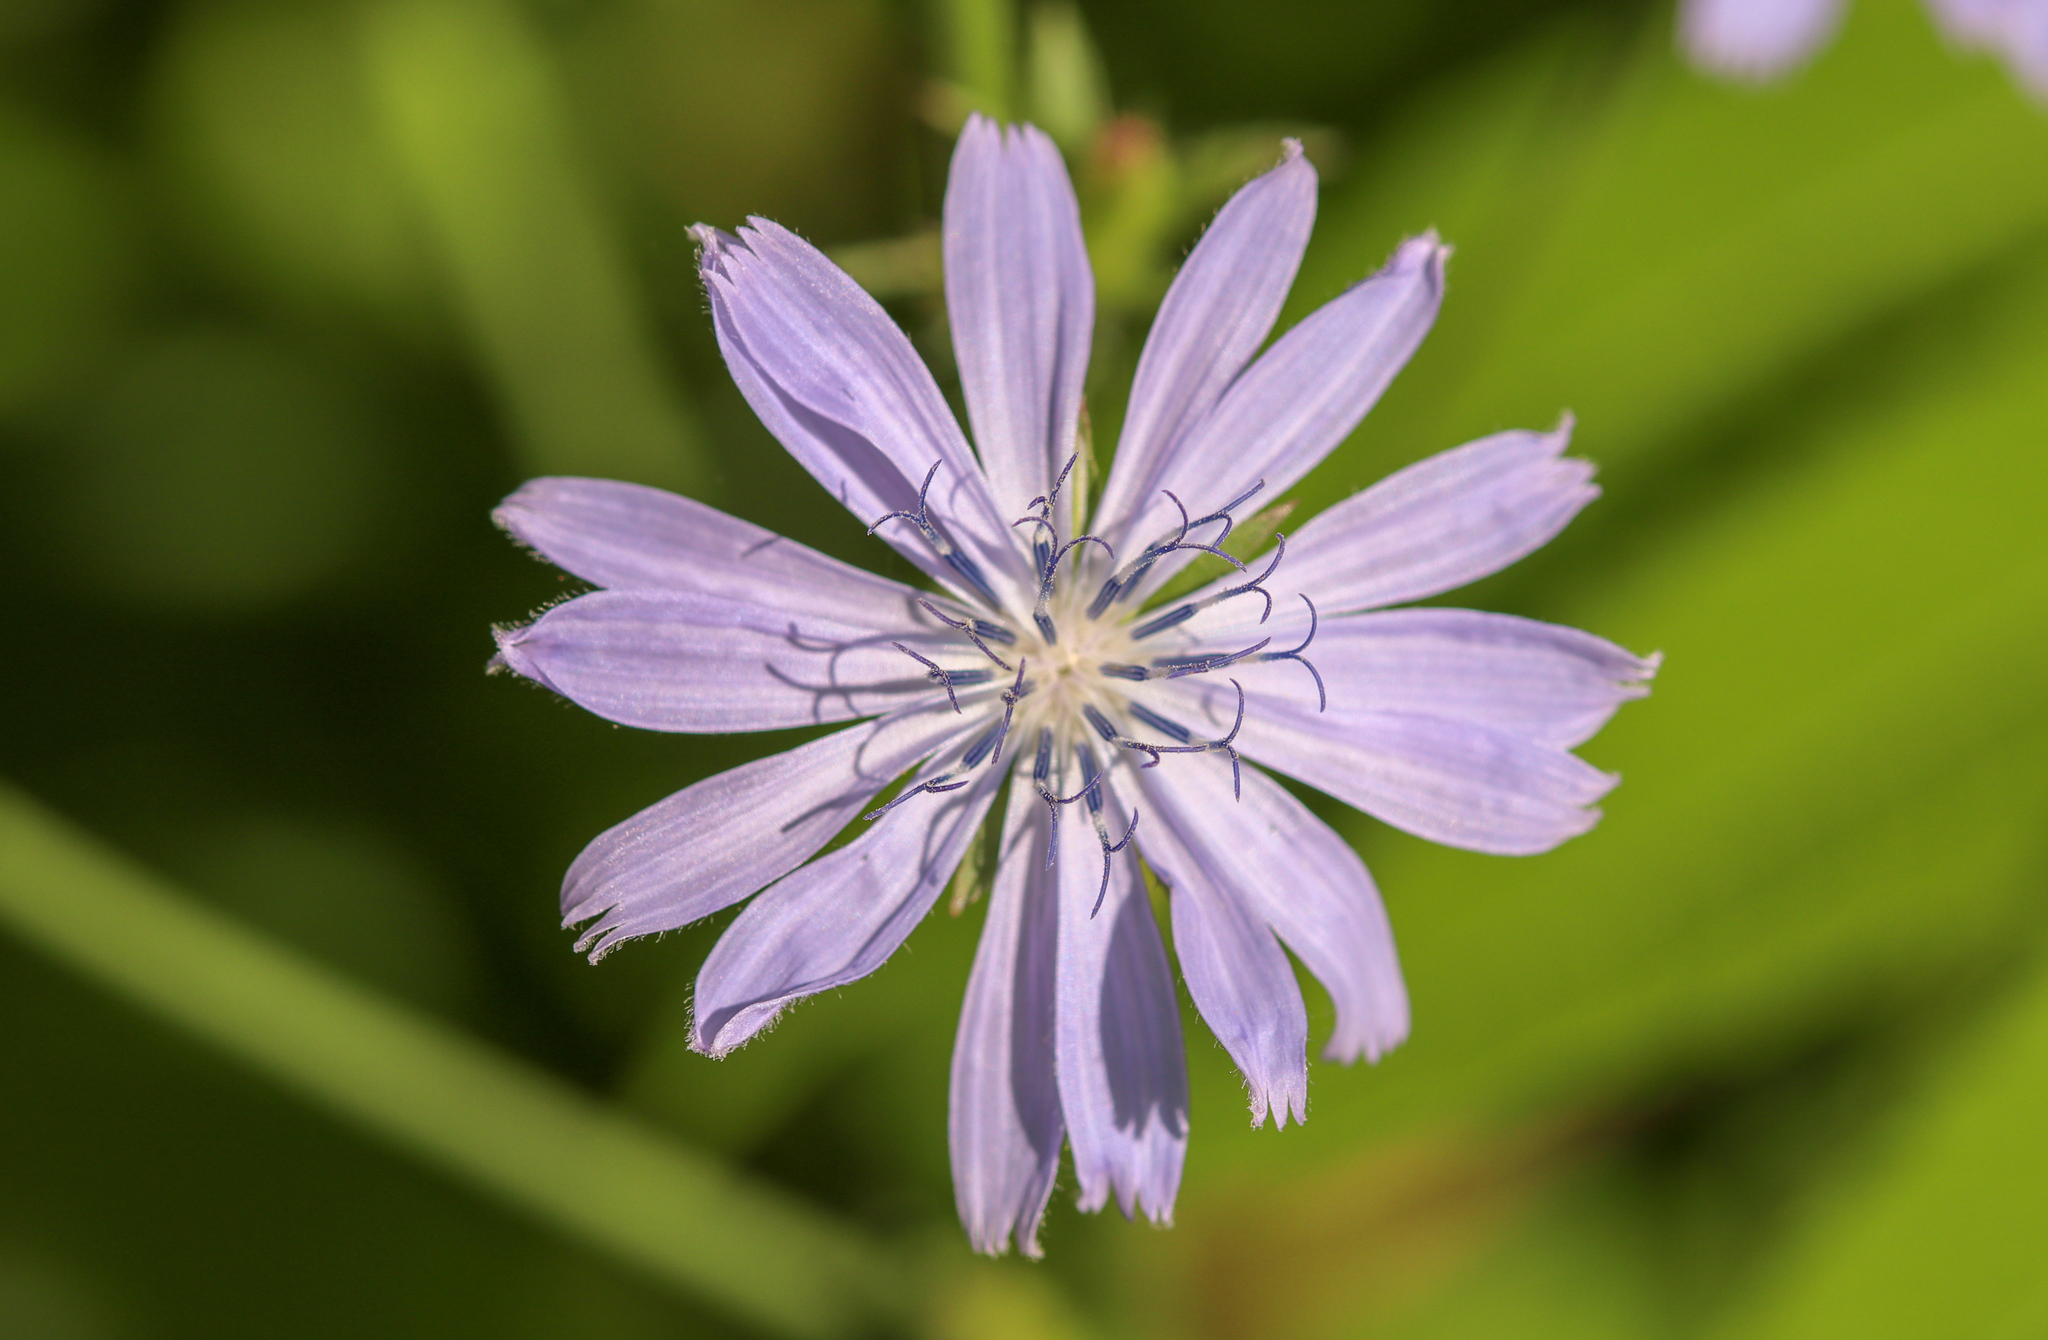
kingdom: Plantae
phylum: Tracheophyta
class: Magnoliopsida
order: Asterales
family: Asteraceae
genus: Cichorium
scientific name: Cichorium intybus
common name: Chicory
